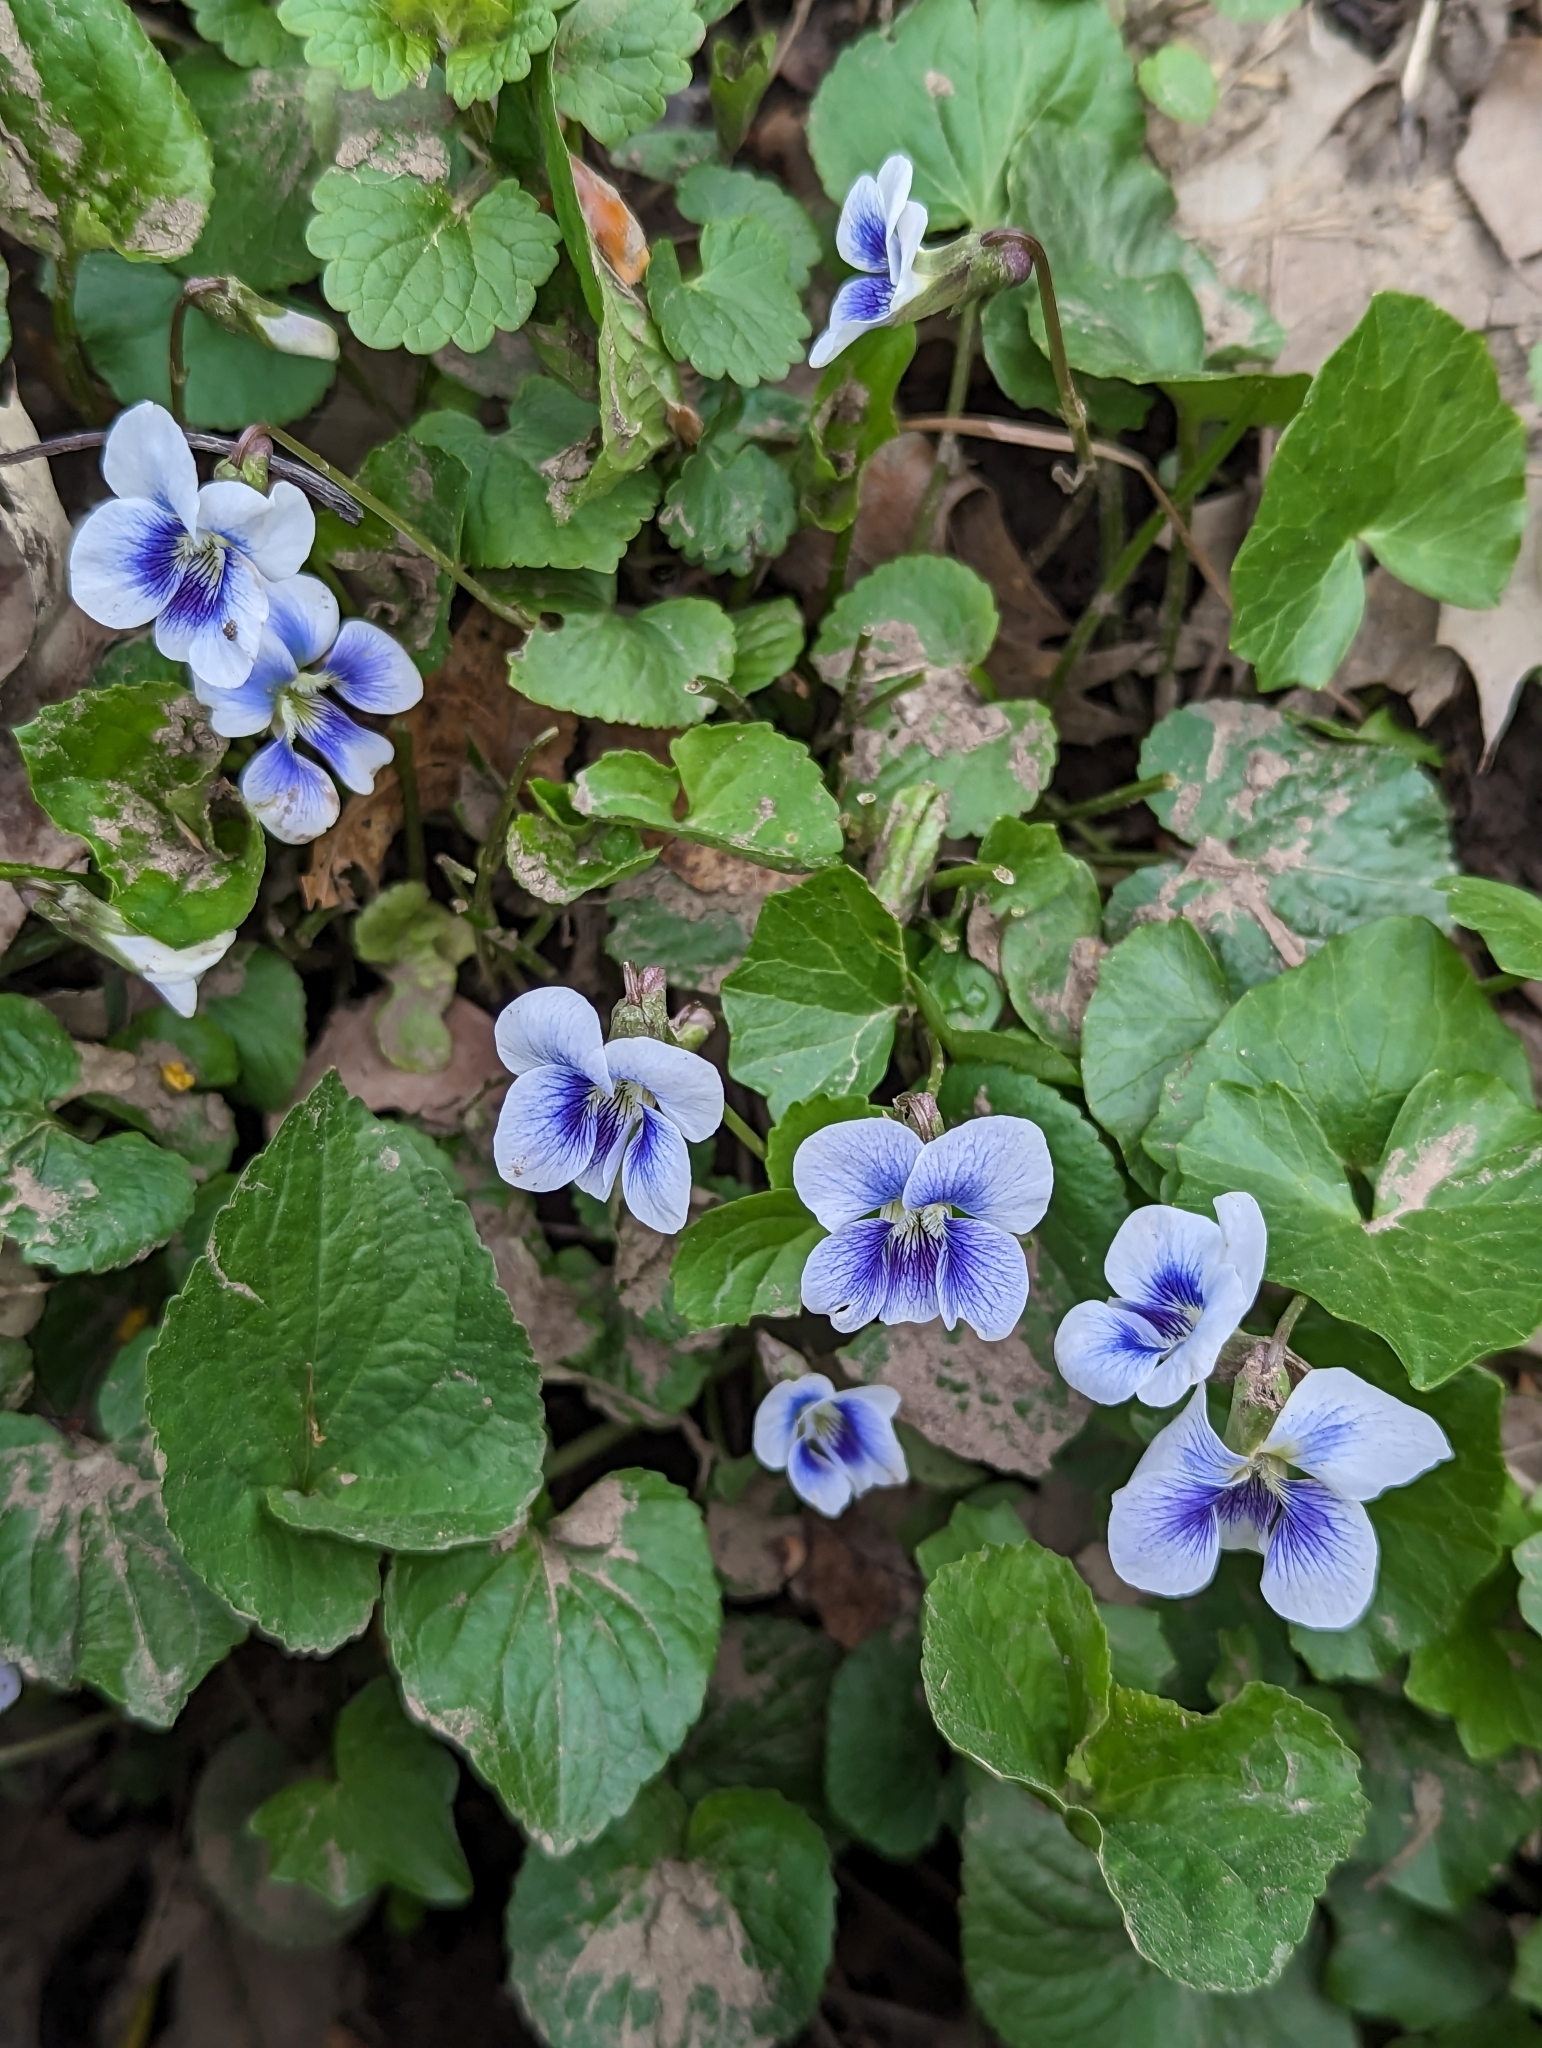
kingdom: Plantae
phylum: Tracheophyta
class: Magnoliopsida
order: Malpighiales
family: Violaceae
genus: Viola
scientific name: Viola sororia
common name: Dooryard violet
